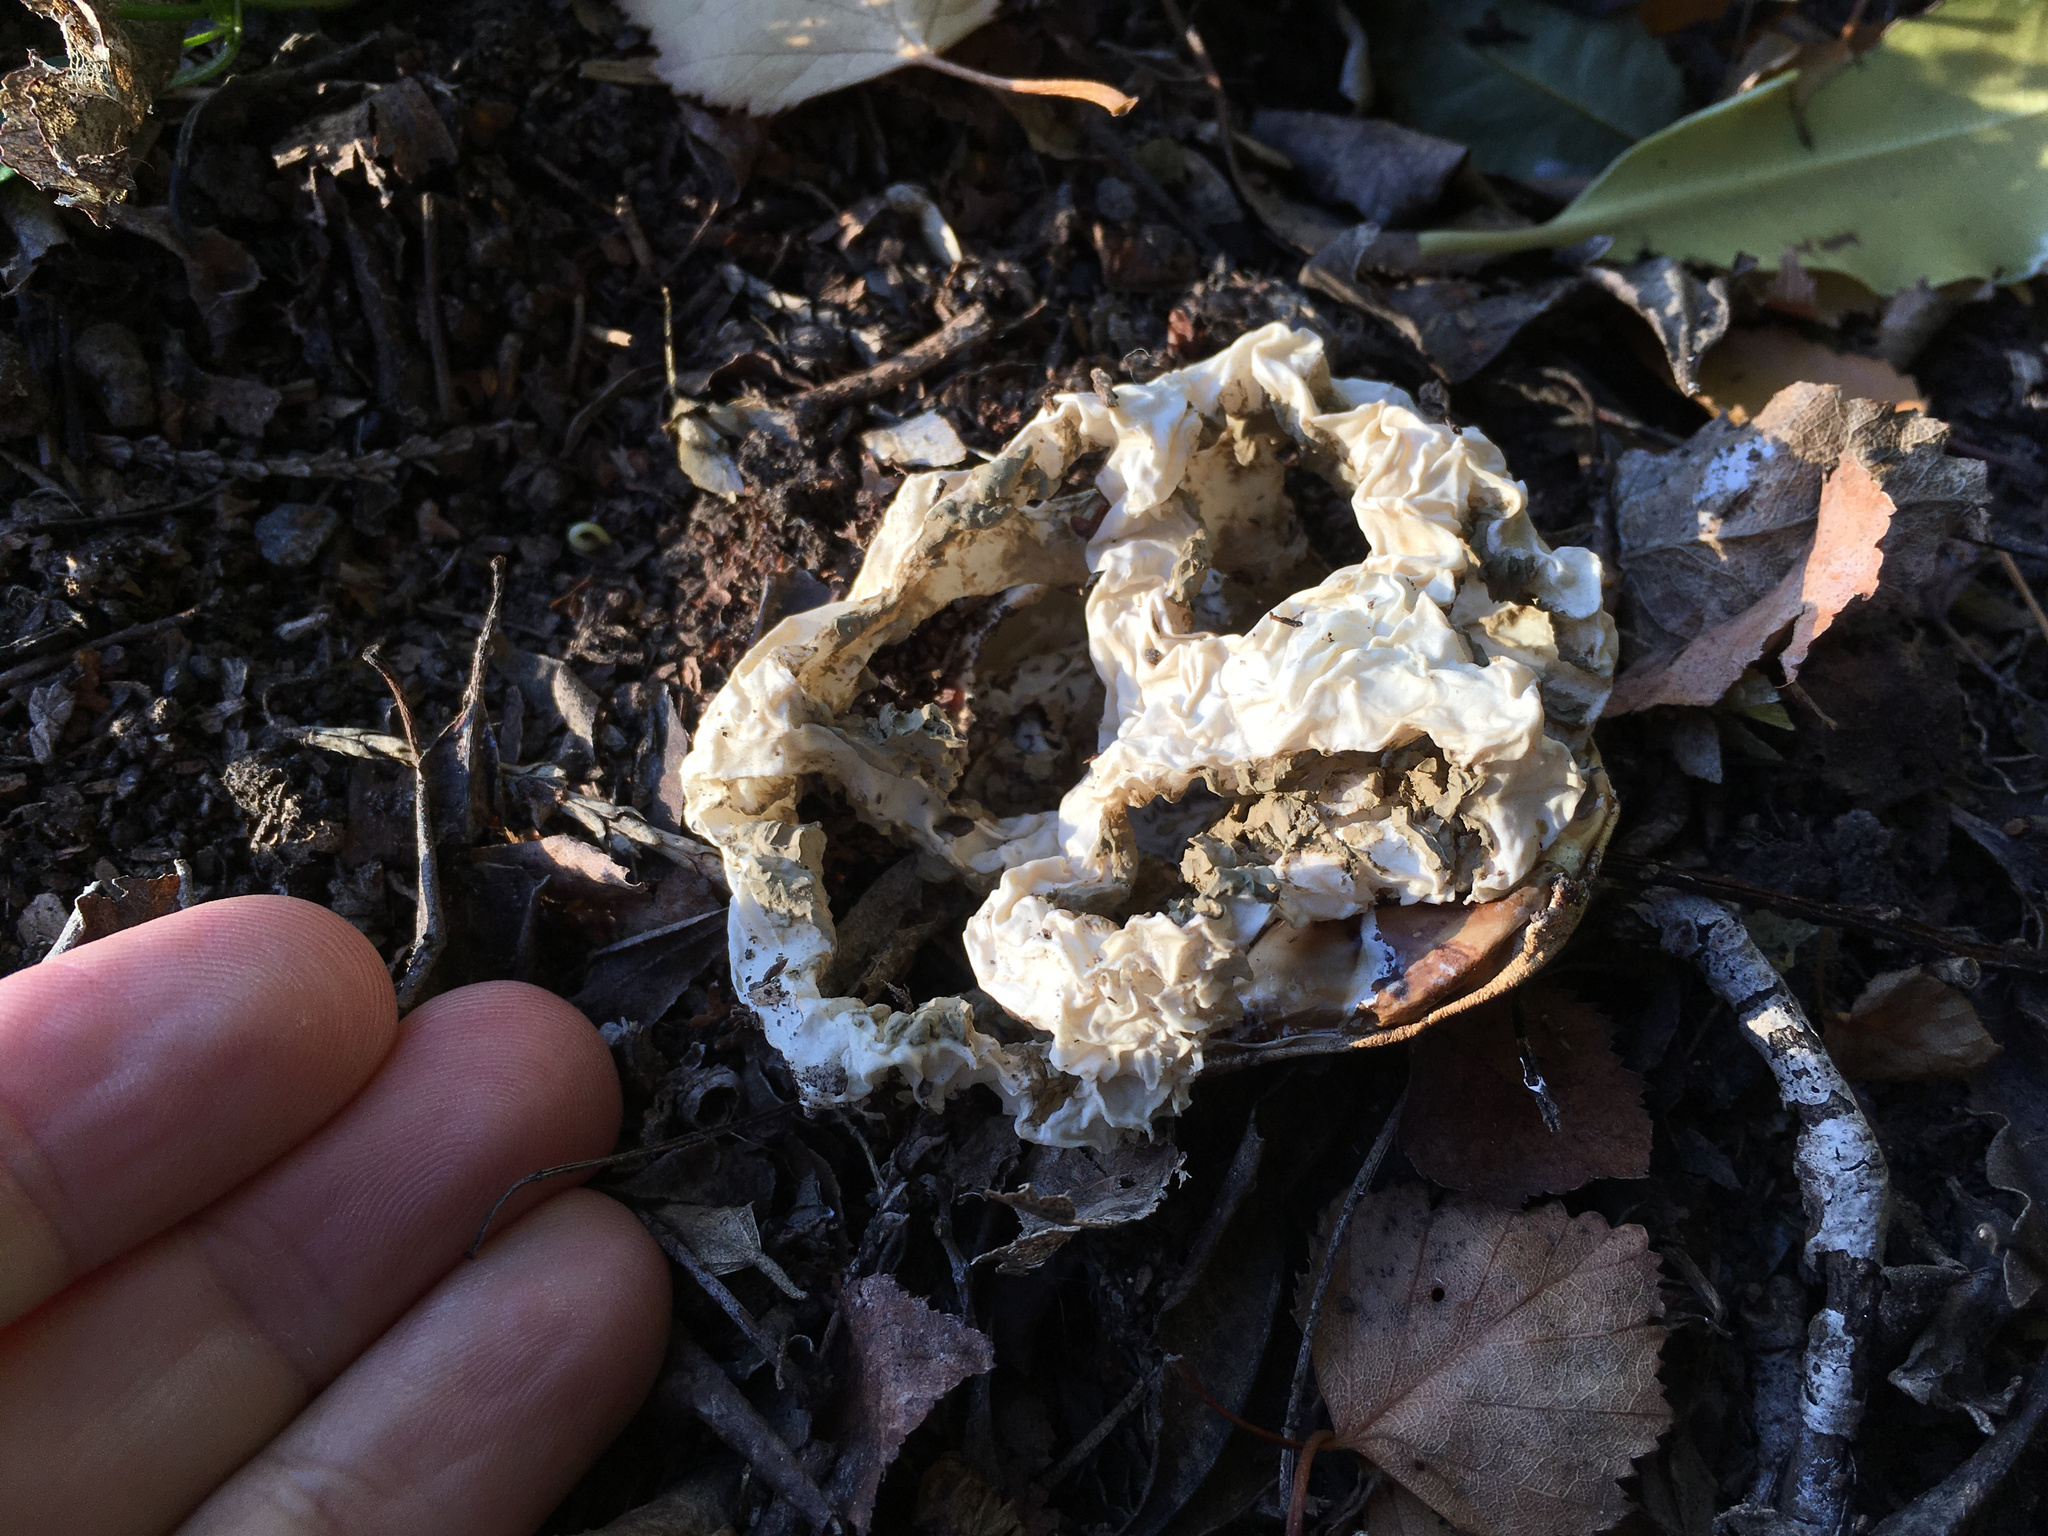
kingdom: Fungi
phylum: Basidiomycota
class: Agaricomycetes
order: Phallales
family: Phallaceae
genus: Ileodictyon
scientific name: Ileodictyon cibarium
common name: Basket fungus
